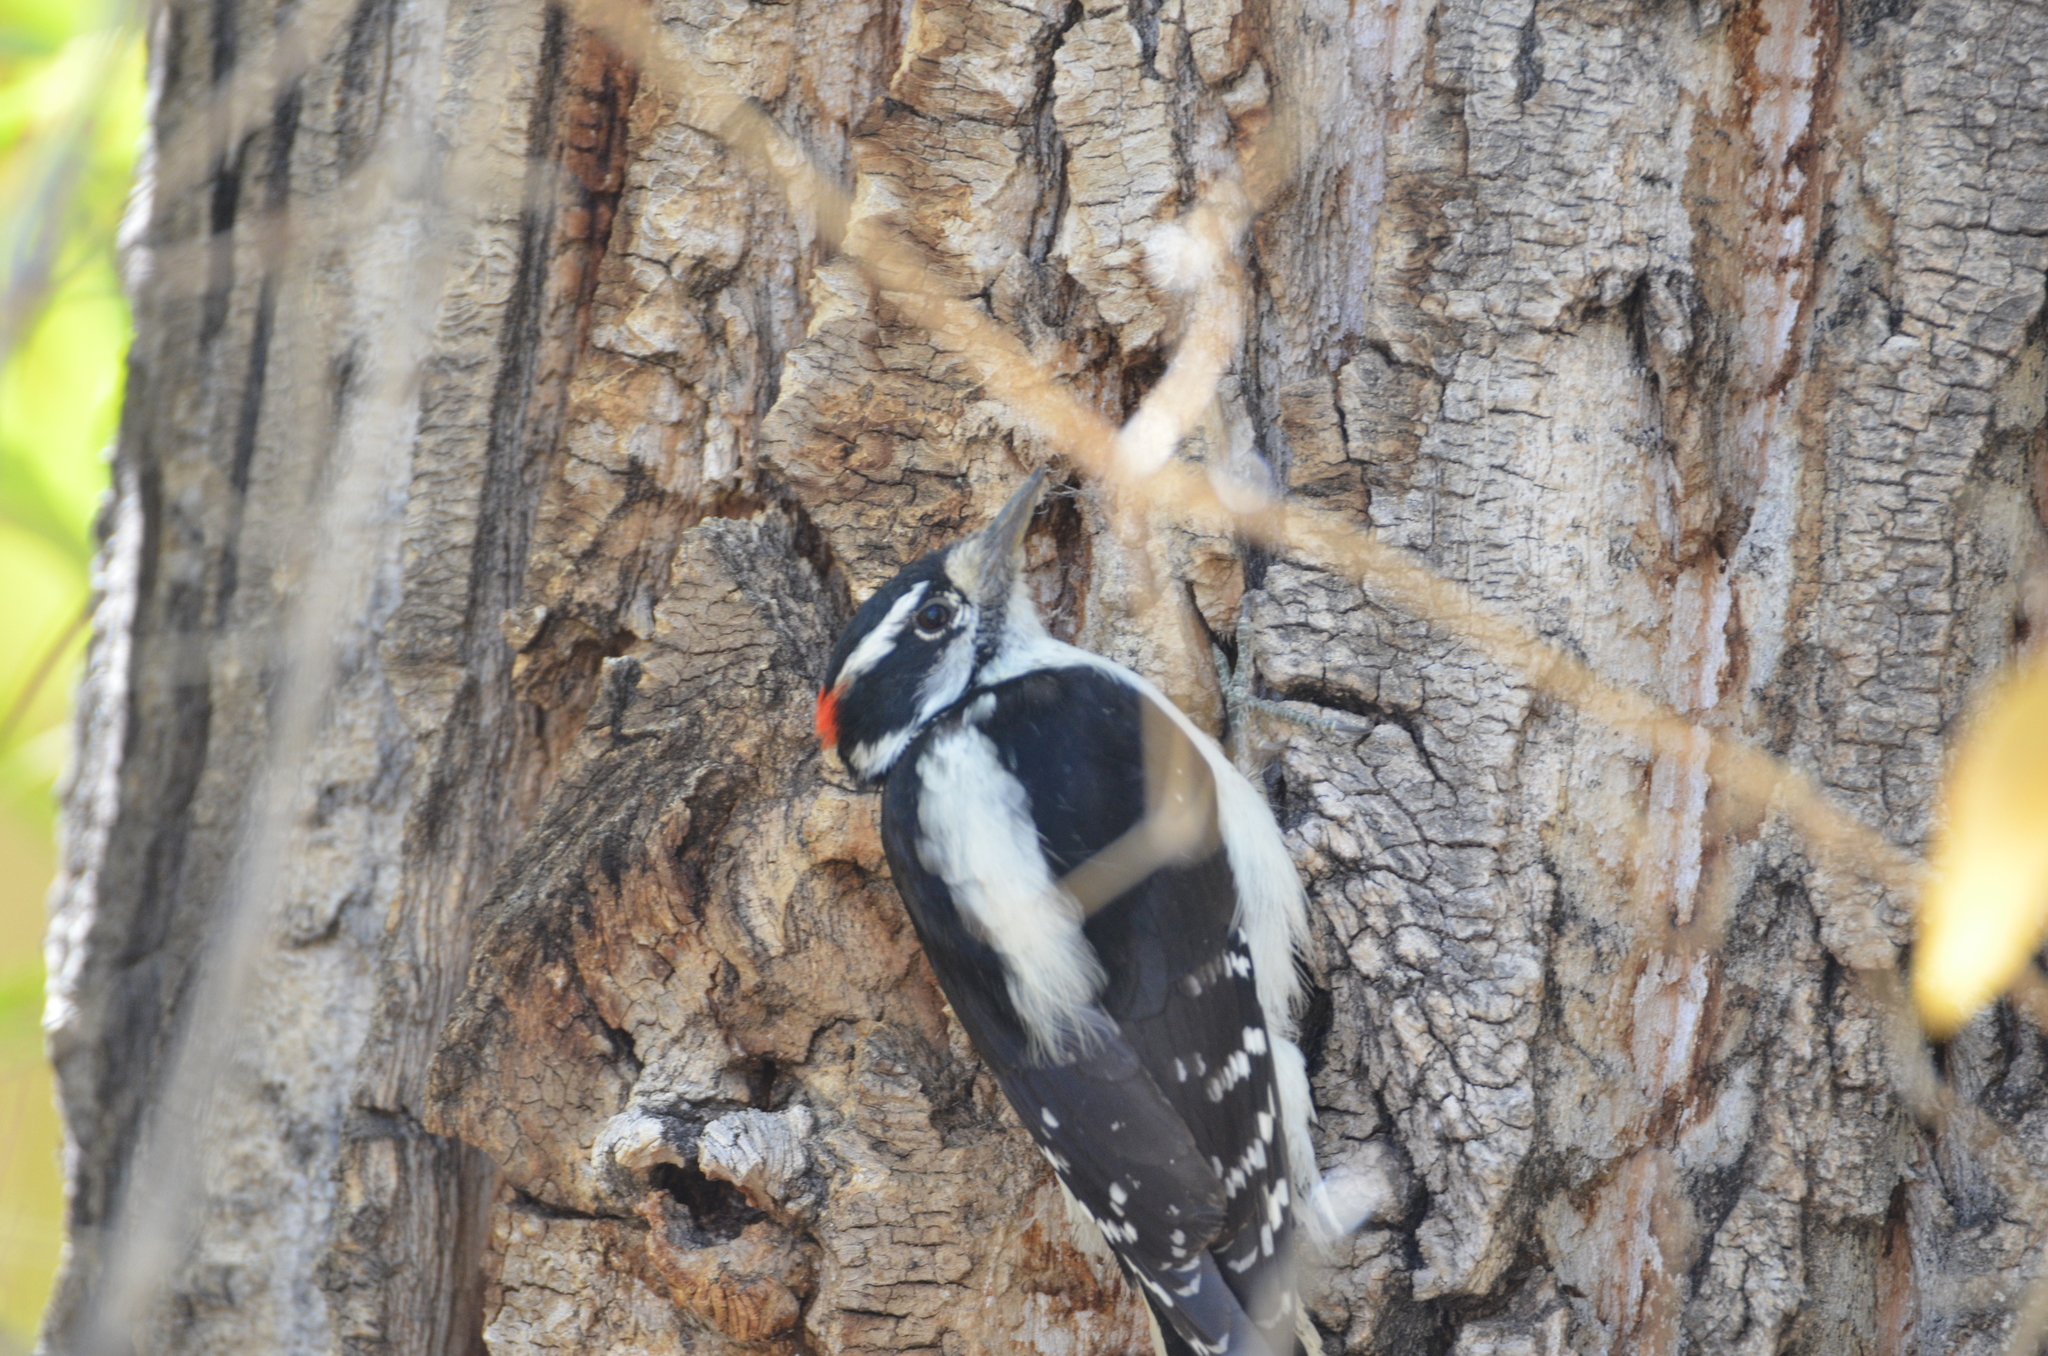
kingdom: Animalia
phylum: Chordata
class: Aves
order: Piciformes
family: Picidae
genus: Leuconotopicus
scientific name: Leuconotopicus villosus
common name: Hairy woodpecker
